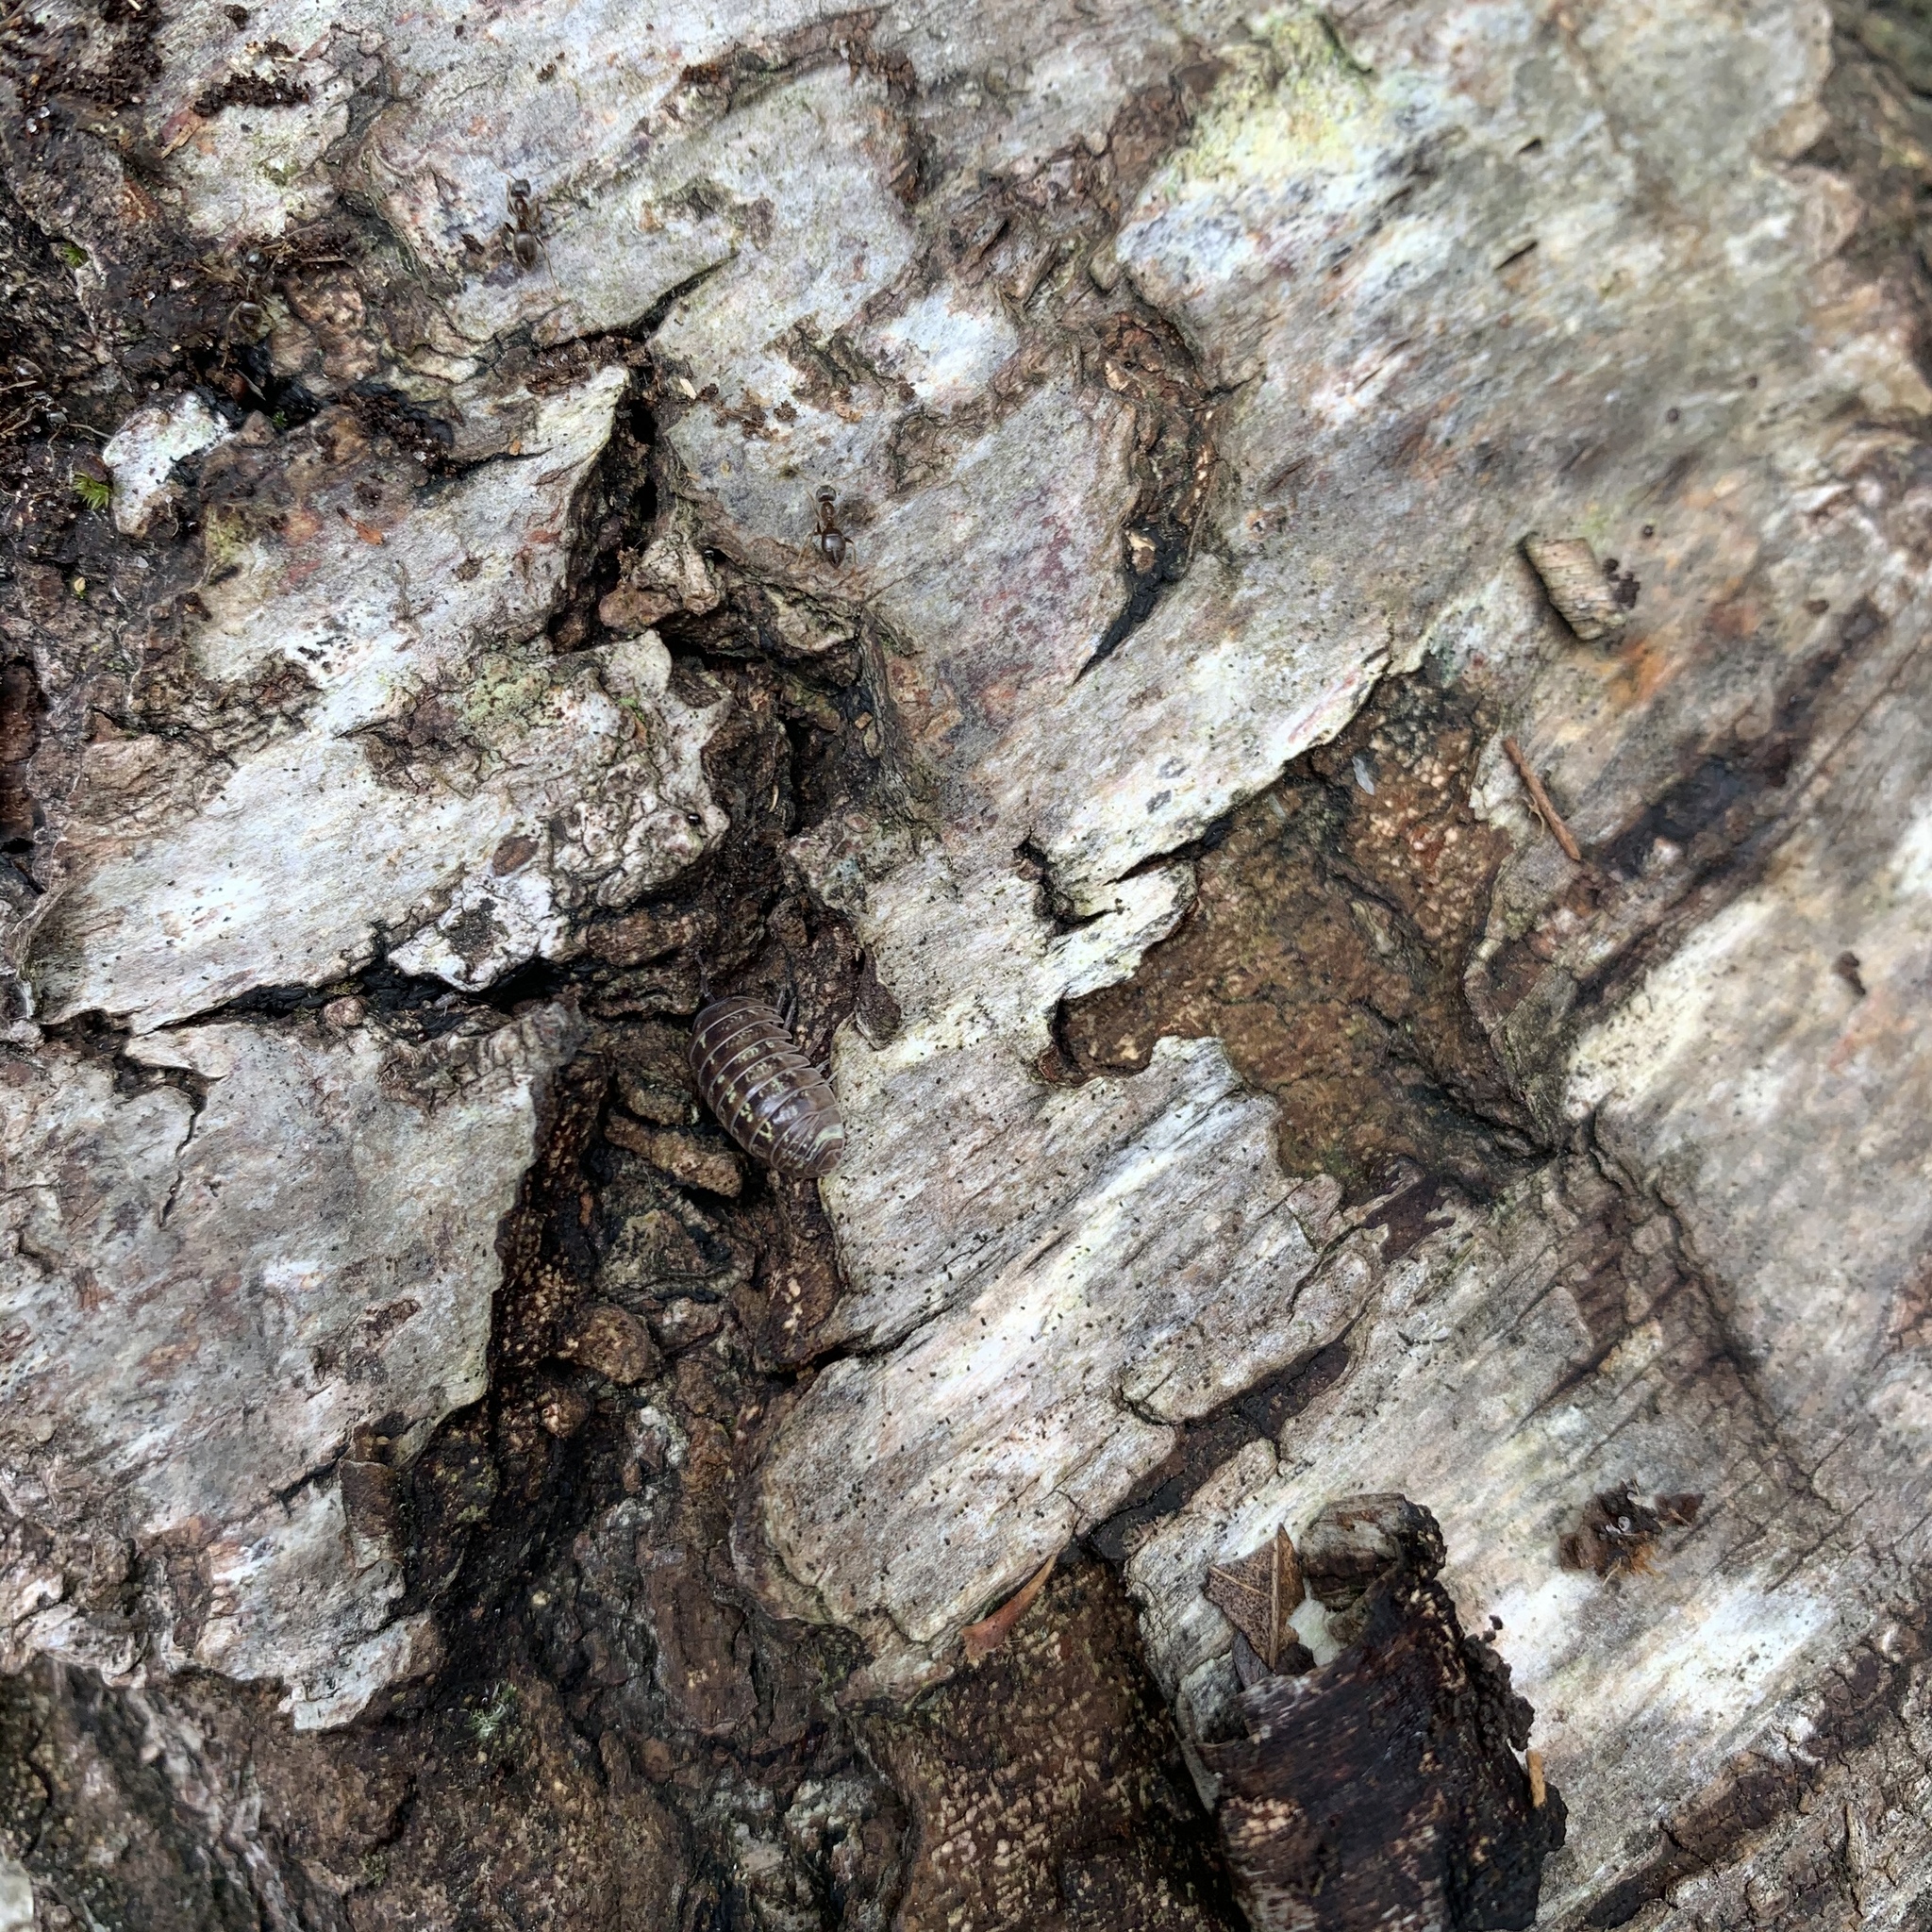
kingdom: Animalia
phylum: Arthropoda
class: Malacostraca
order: Isopoda
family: Armadillidiidae
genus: Armadillidium
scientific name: Armadillidium vulgare
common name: Common pill woodlouse
